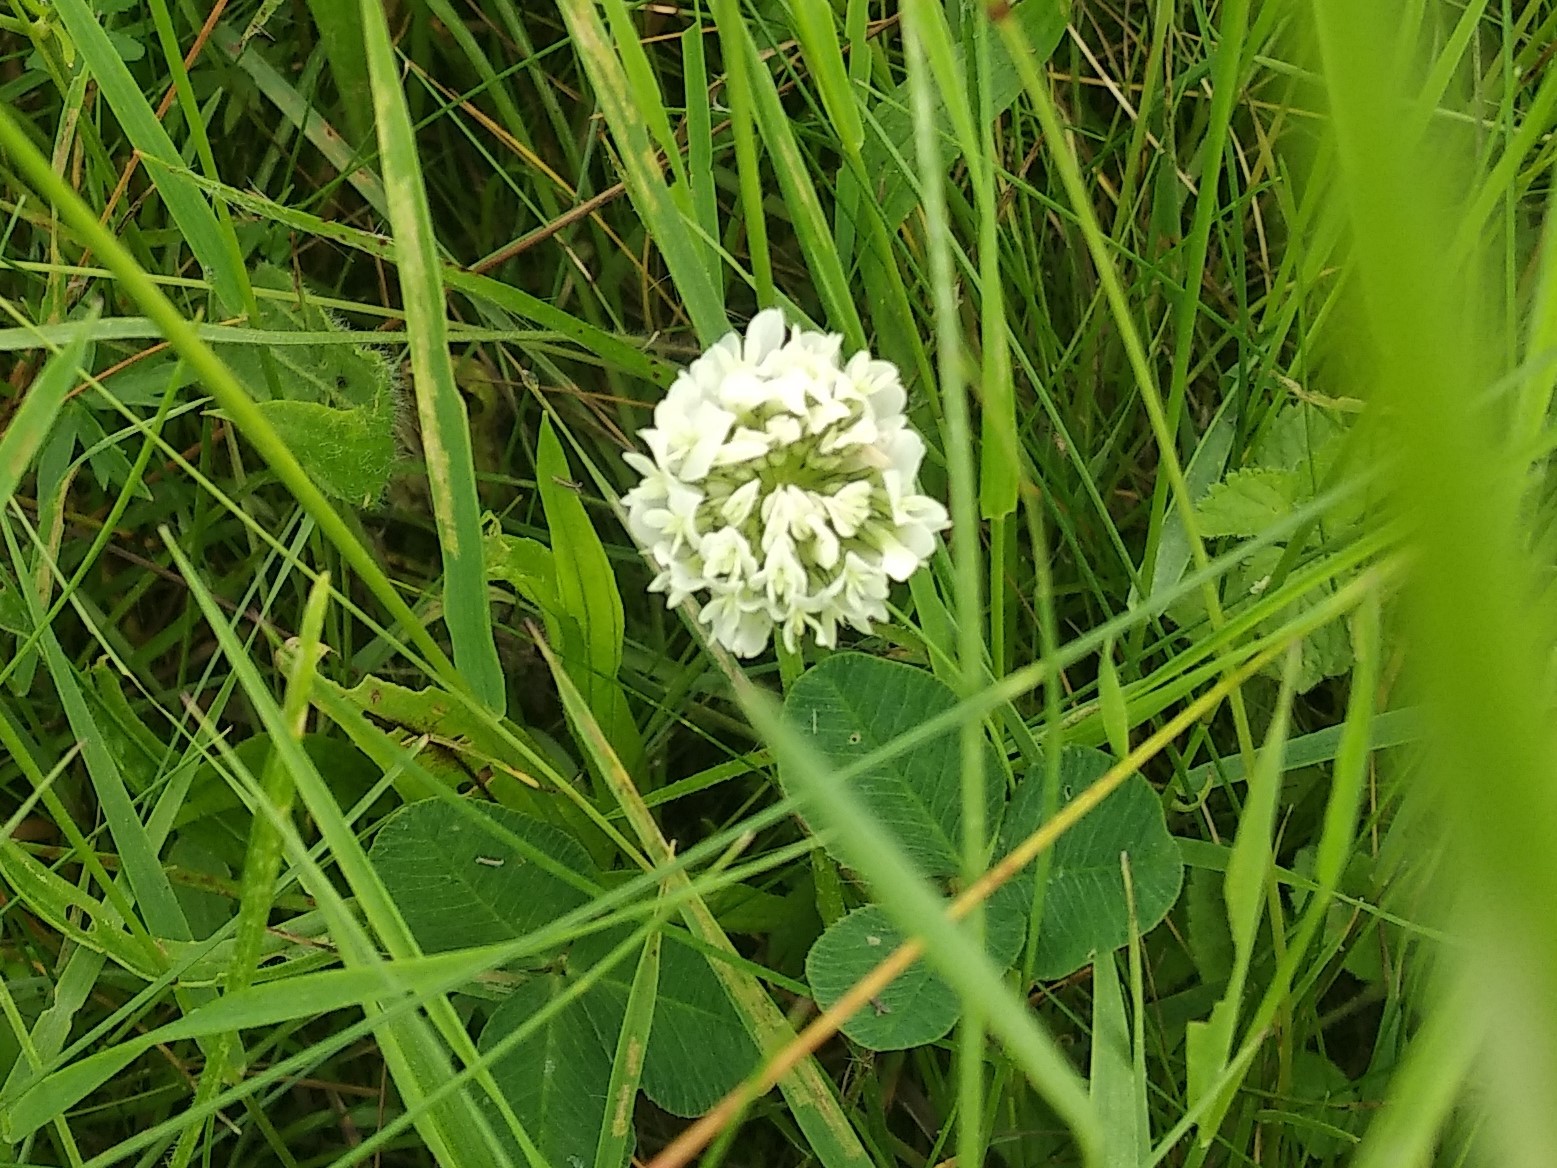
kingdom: Plantae
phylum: Tracheophyta
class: Magnoliopsida
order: Fabales
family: Fabaceae
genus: Trifolium
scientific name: Trifolium repens
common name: White clover
